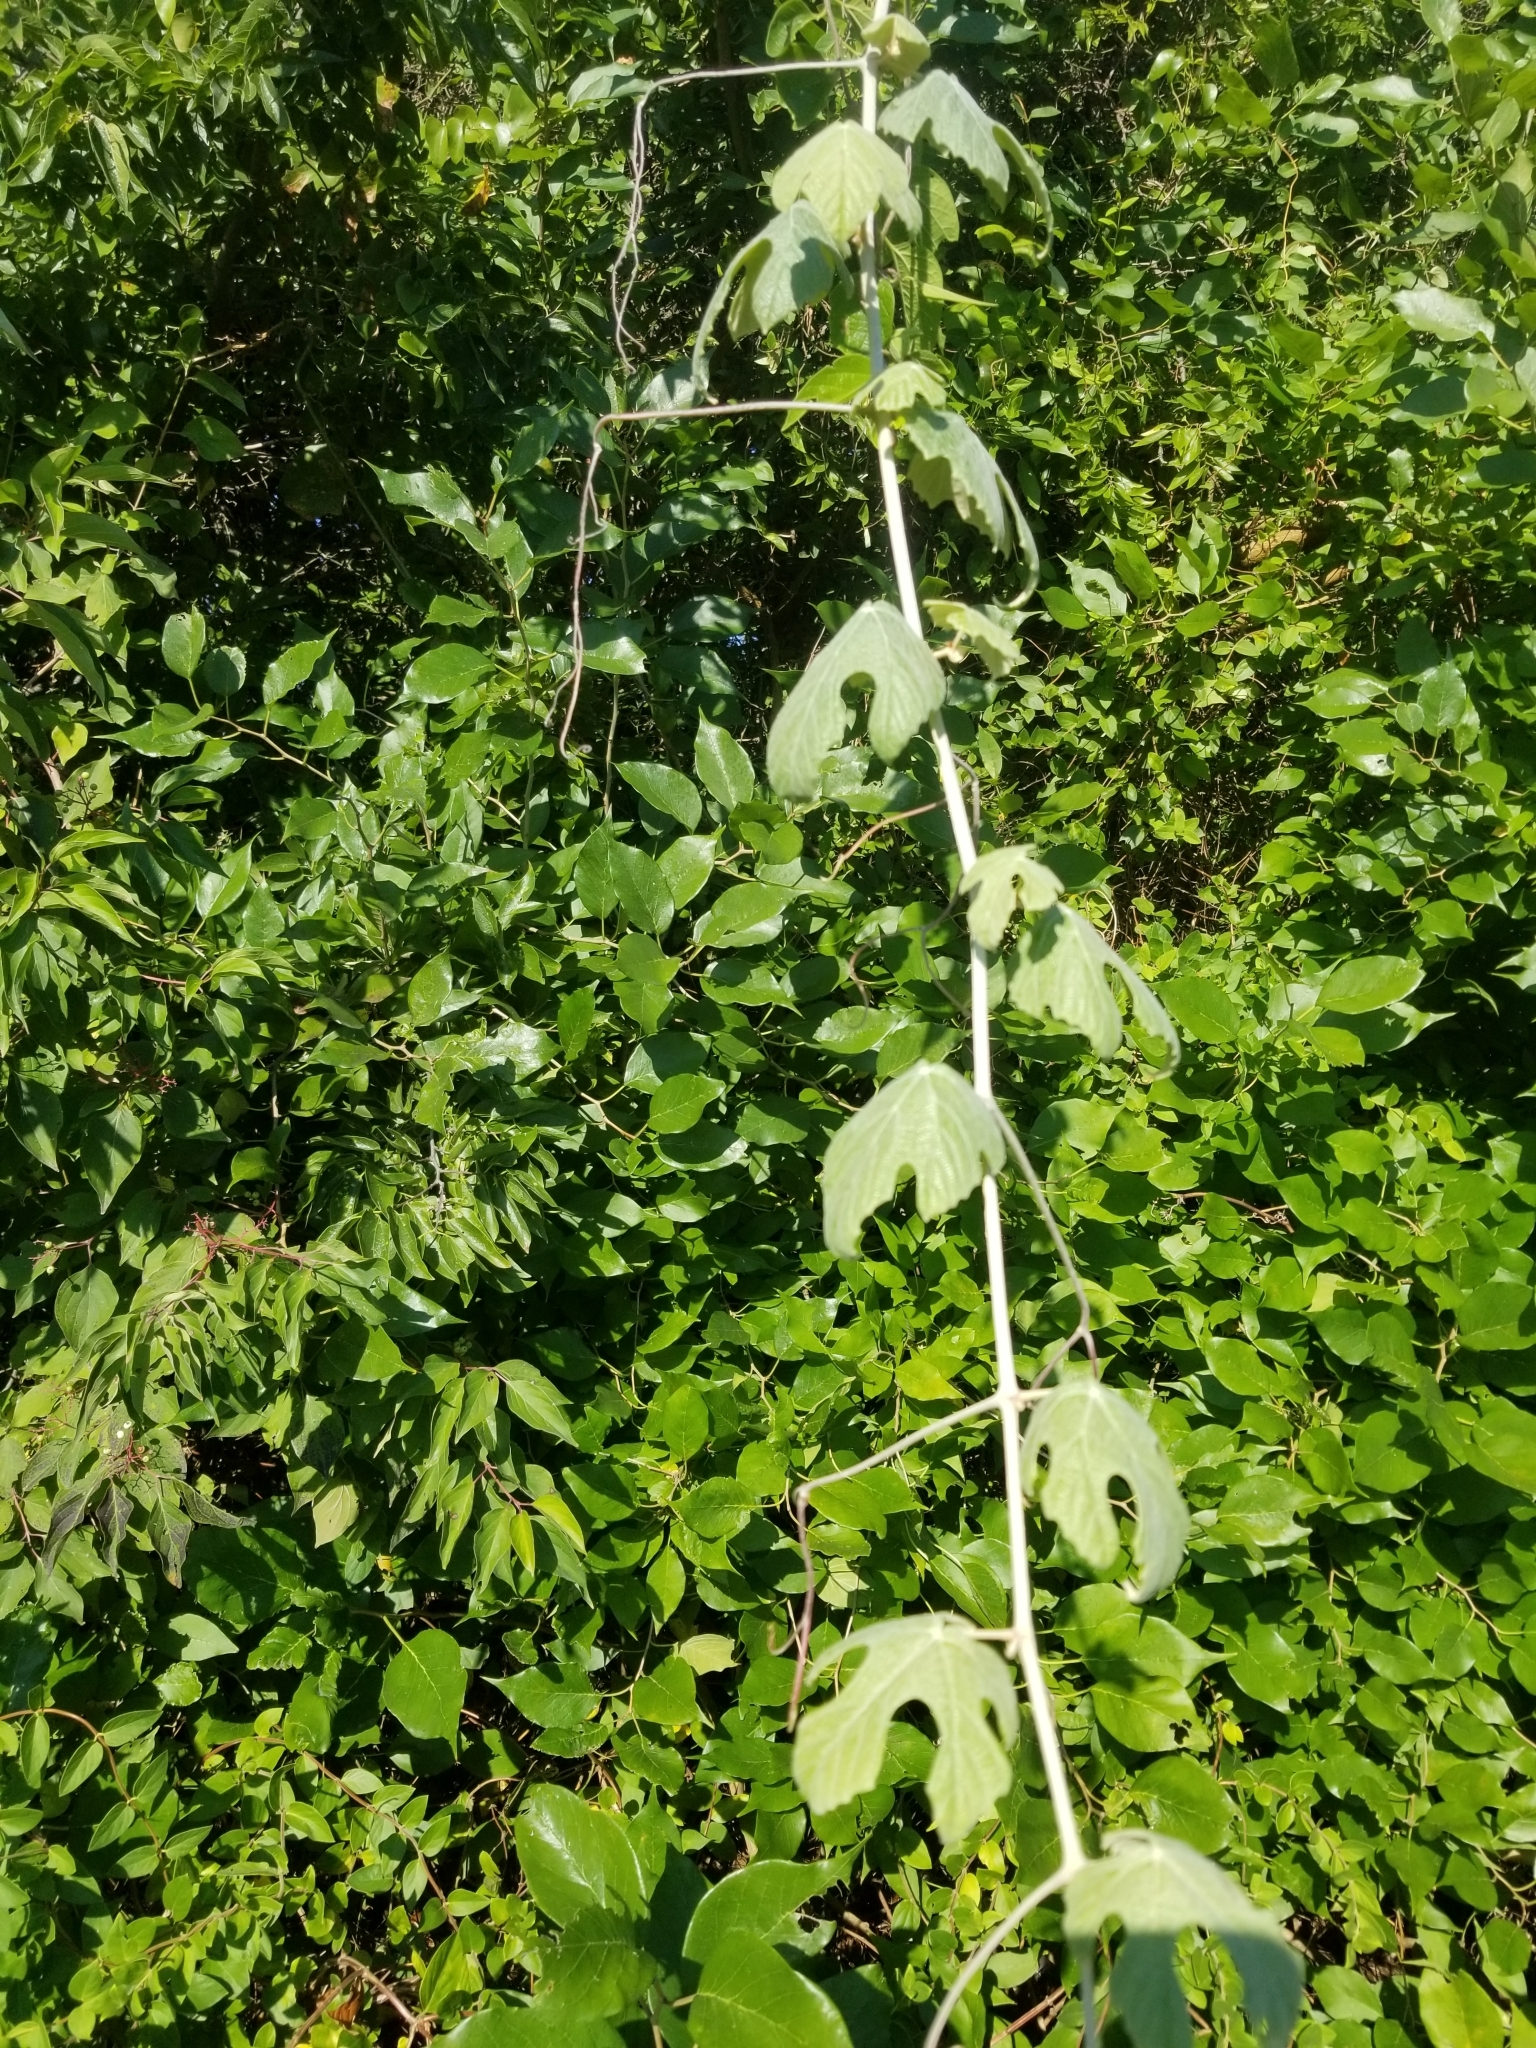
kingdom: Plantae
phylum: Tracheophyta
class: Magnoliopsida
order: Vitales
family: Vitaceae
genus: Vitis
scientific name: Vitis mustangensis
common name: Mustang grape
